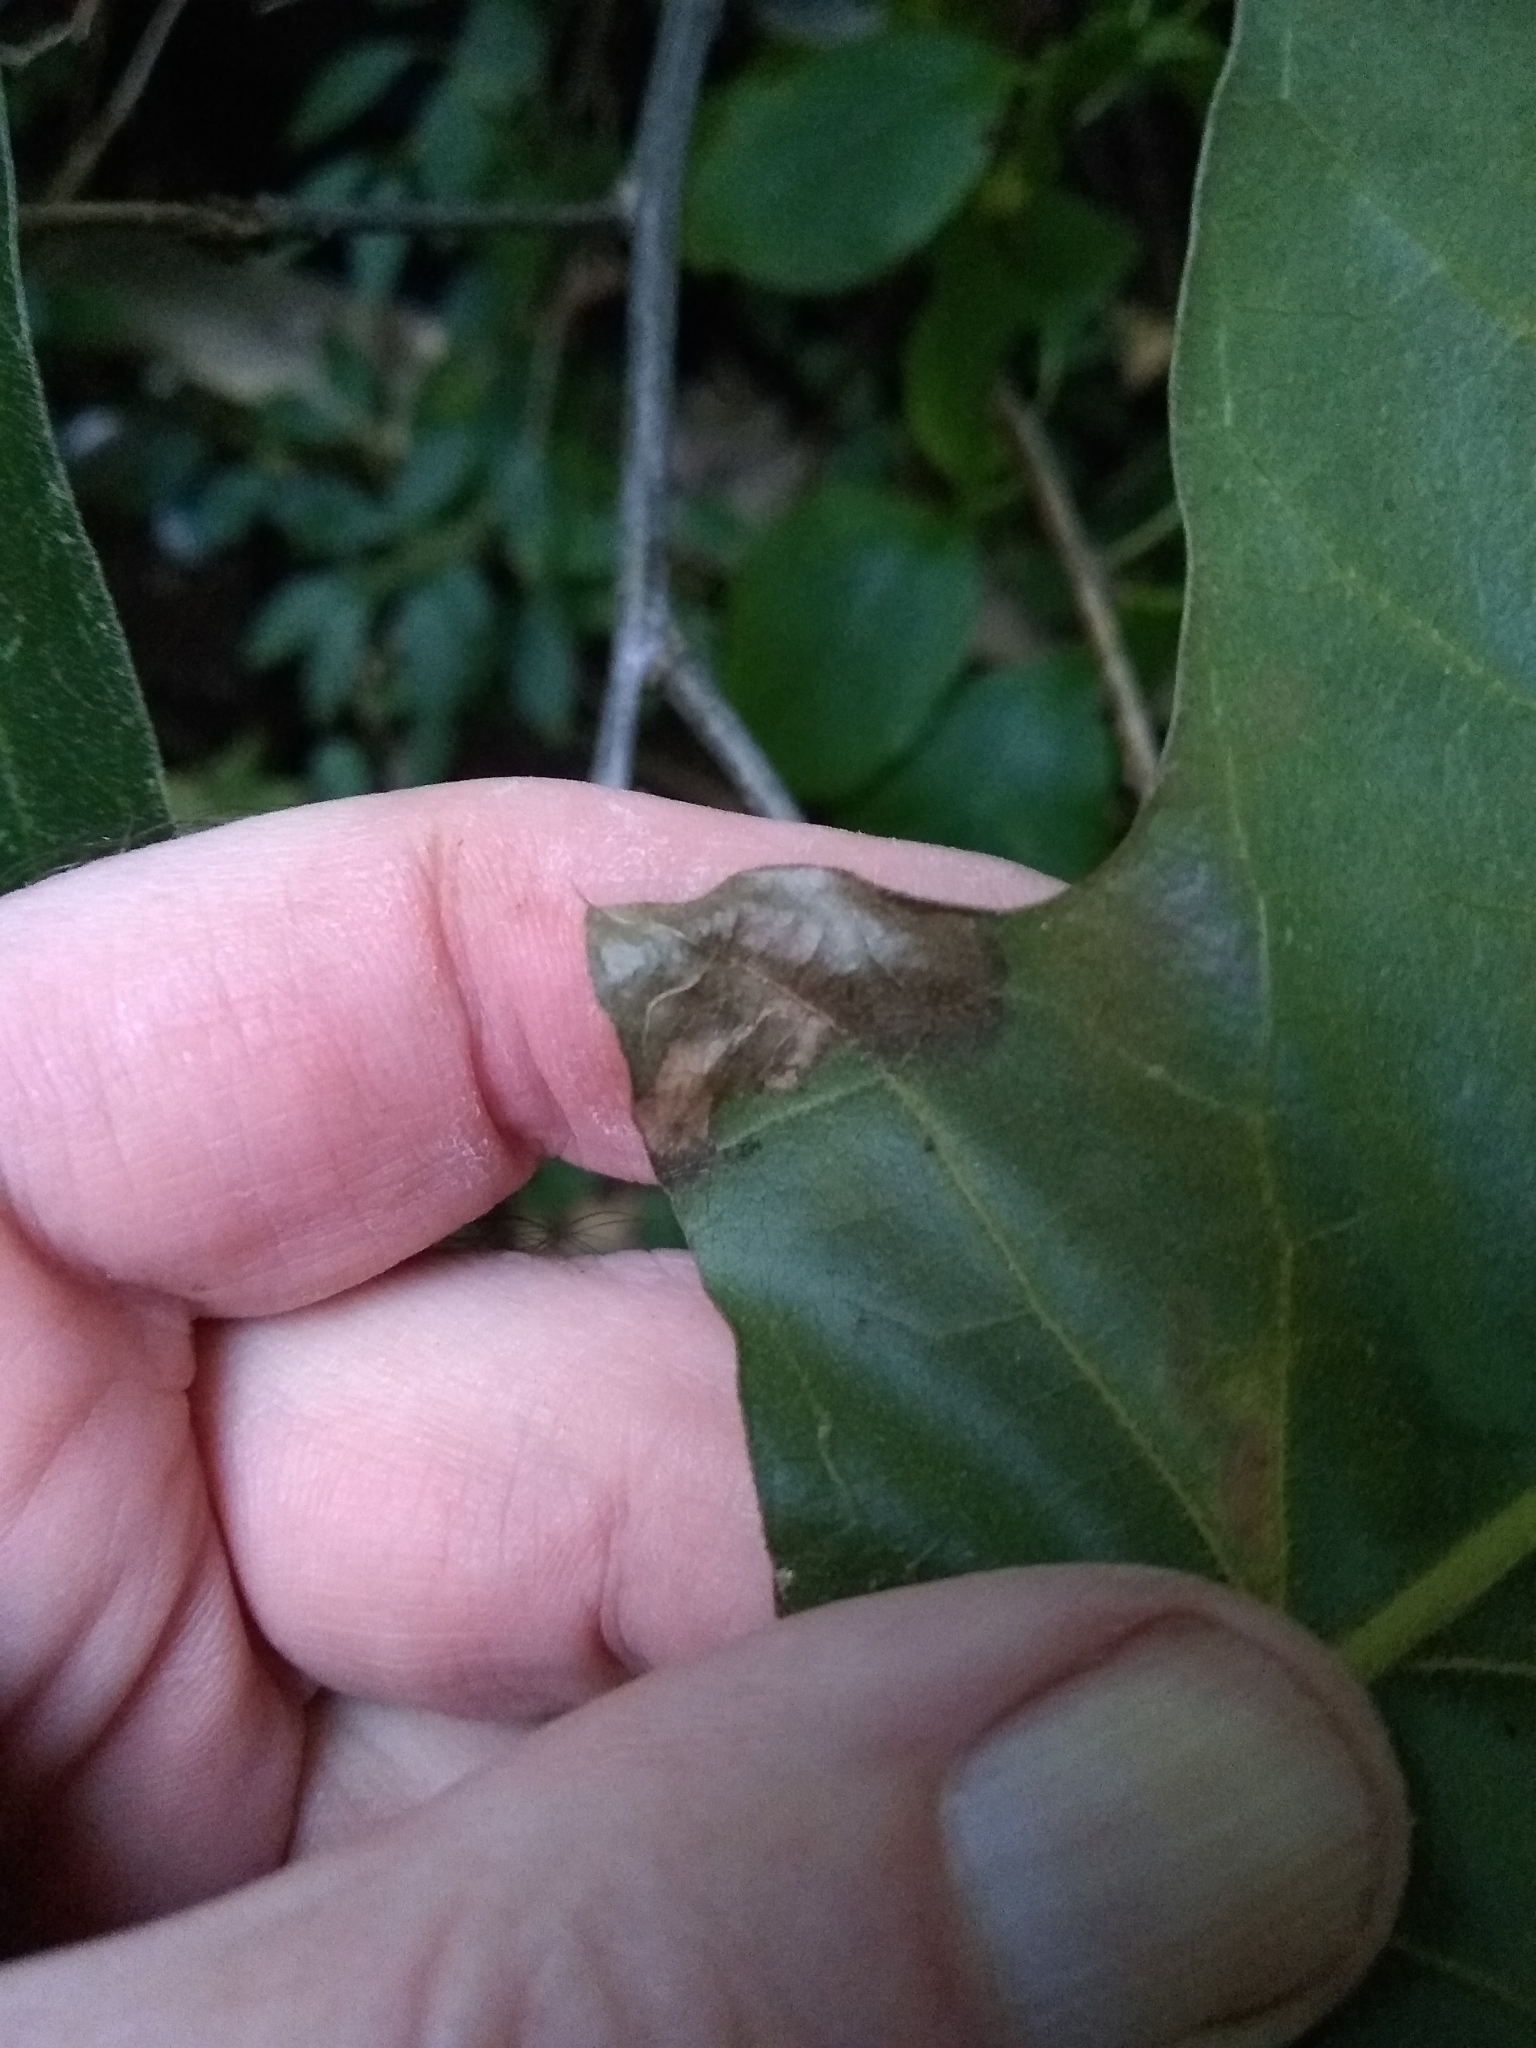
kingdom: Animalia
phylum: Arthropoda
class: Insecta
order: Lepidoptera
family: Tischeriidae
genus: Coptotriche
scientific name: Coptotriche castaneaeella
